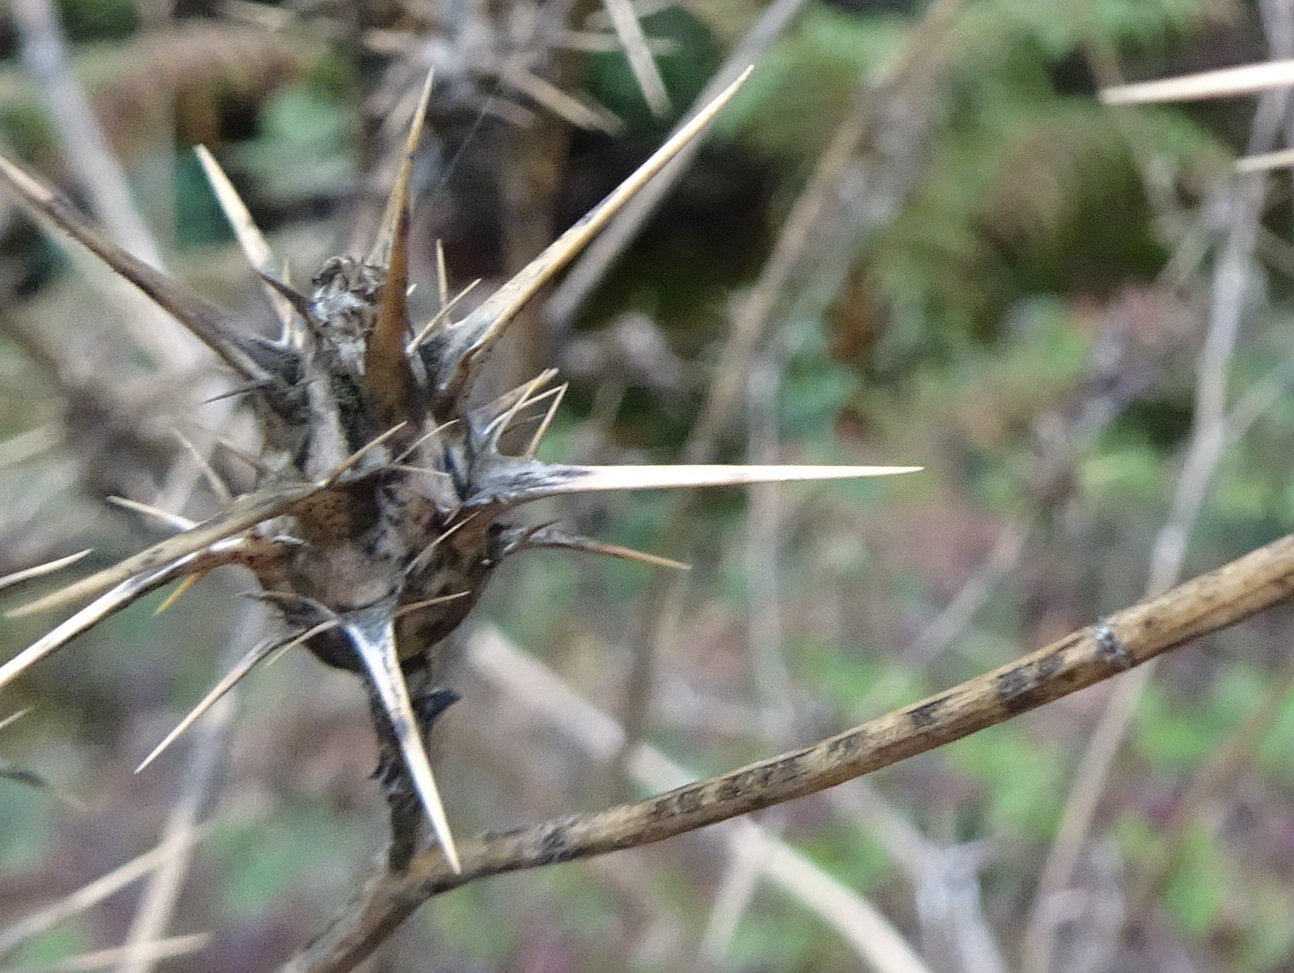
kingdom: Plantae
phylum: Tracheophyta
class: Magnoliopsida
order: Asterales
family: Asteraceae
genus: Centaurea
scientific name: Centaurea calcitrapa
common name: Red star-thistle
